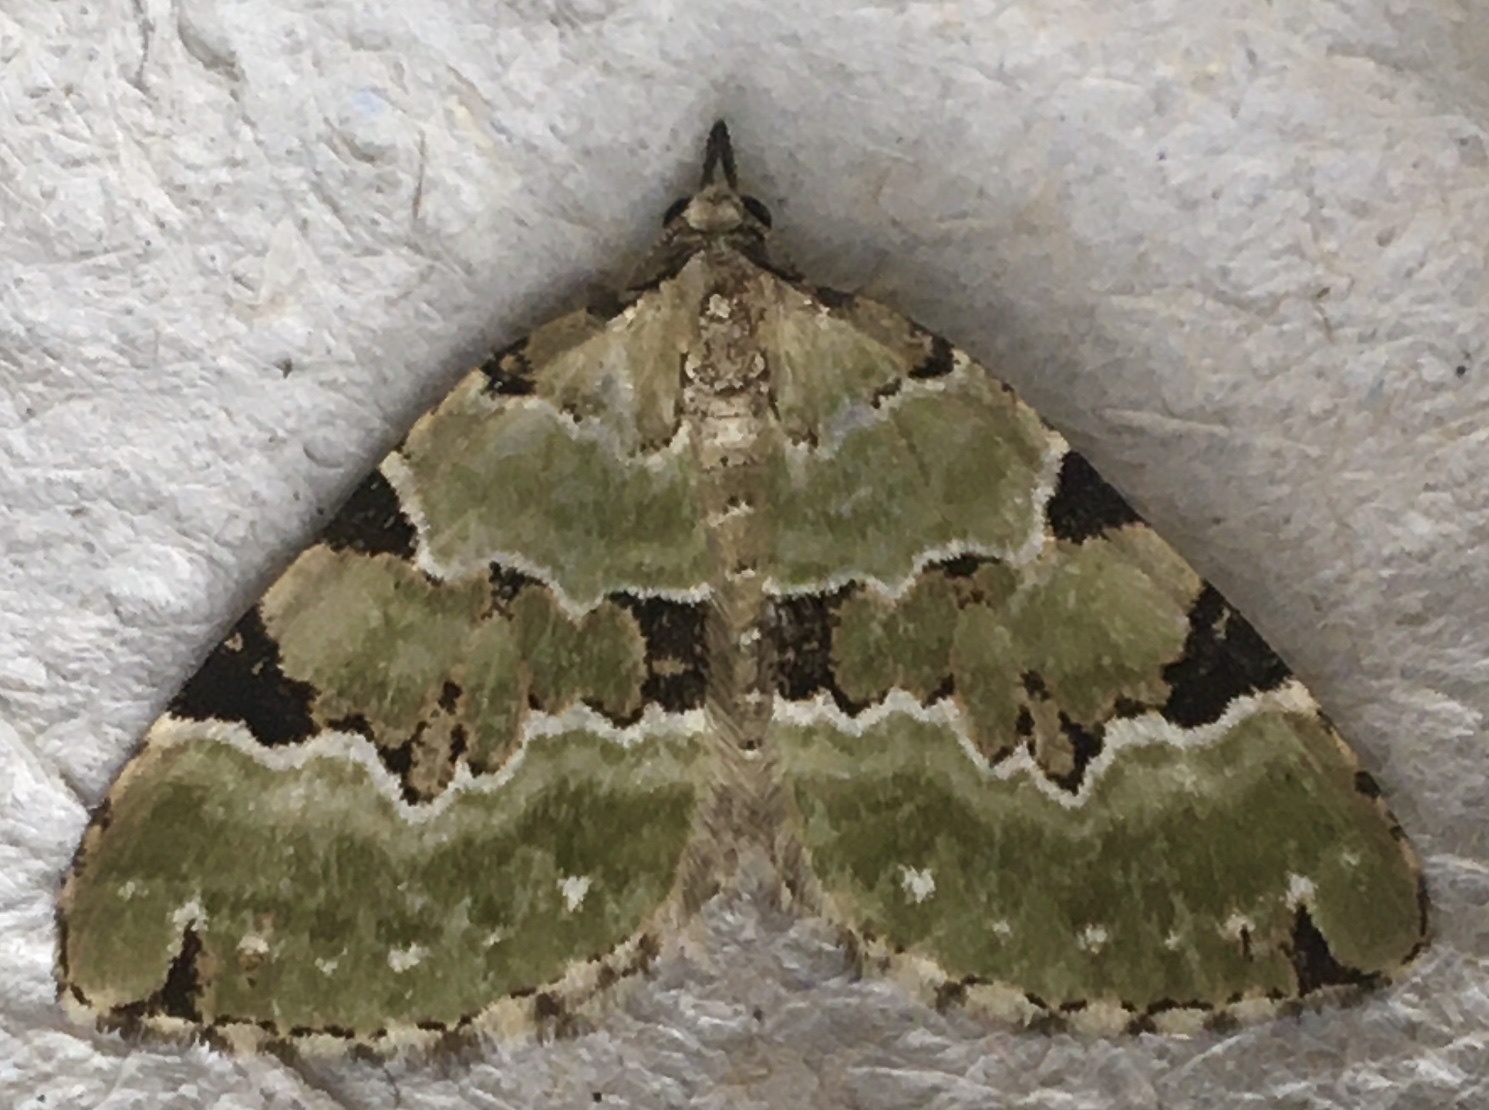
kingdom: Animalia
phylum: Arthropoda
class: Insecta
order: Lepidoptera
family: Geometridae
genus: Colostygia
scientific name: Colostygia pectinataria
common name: Green carpet
